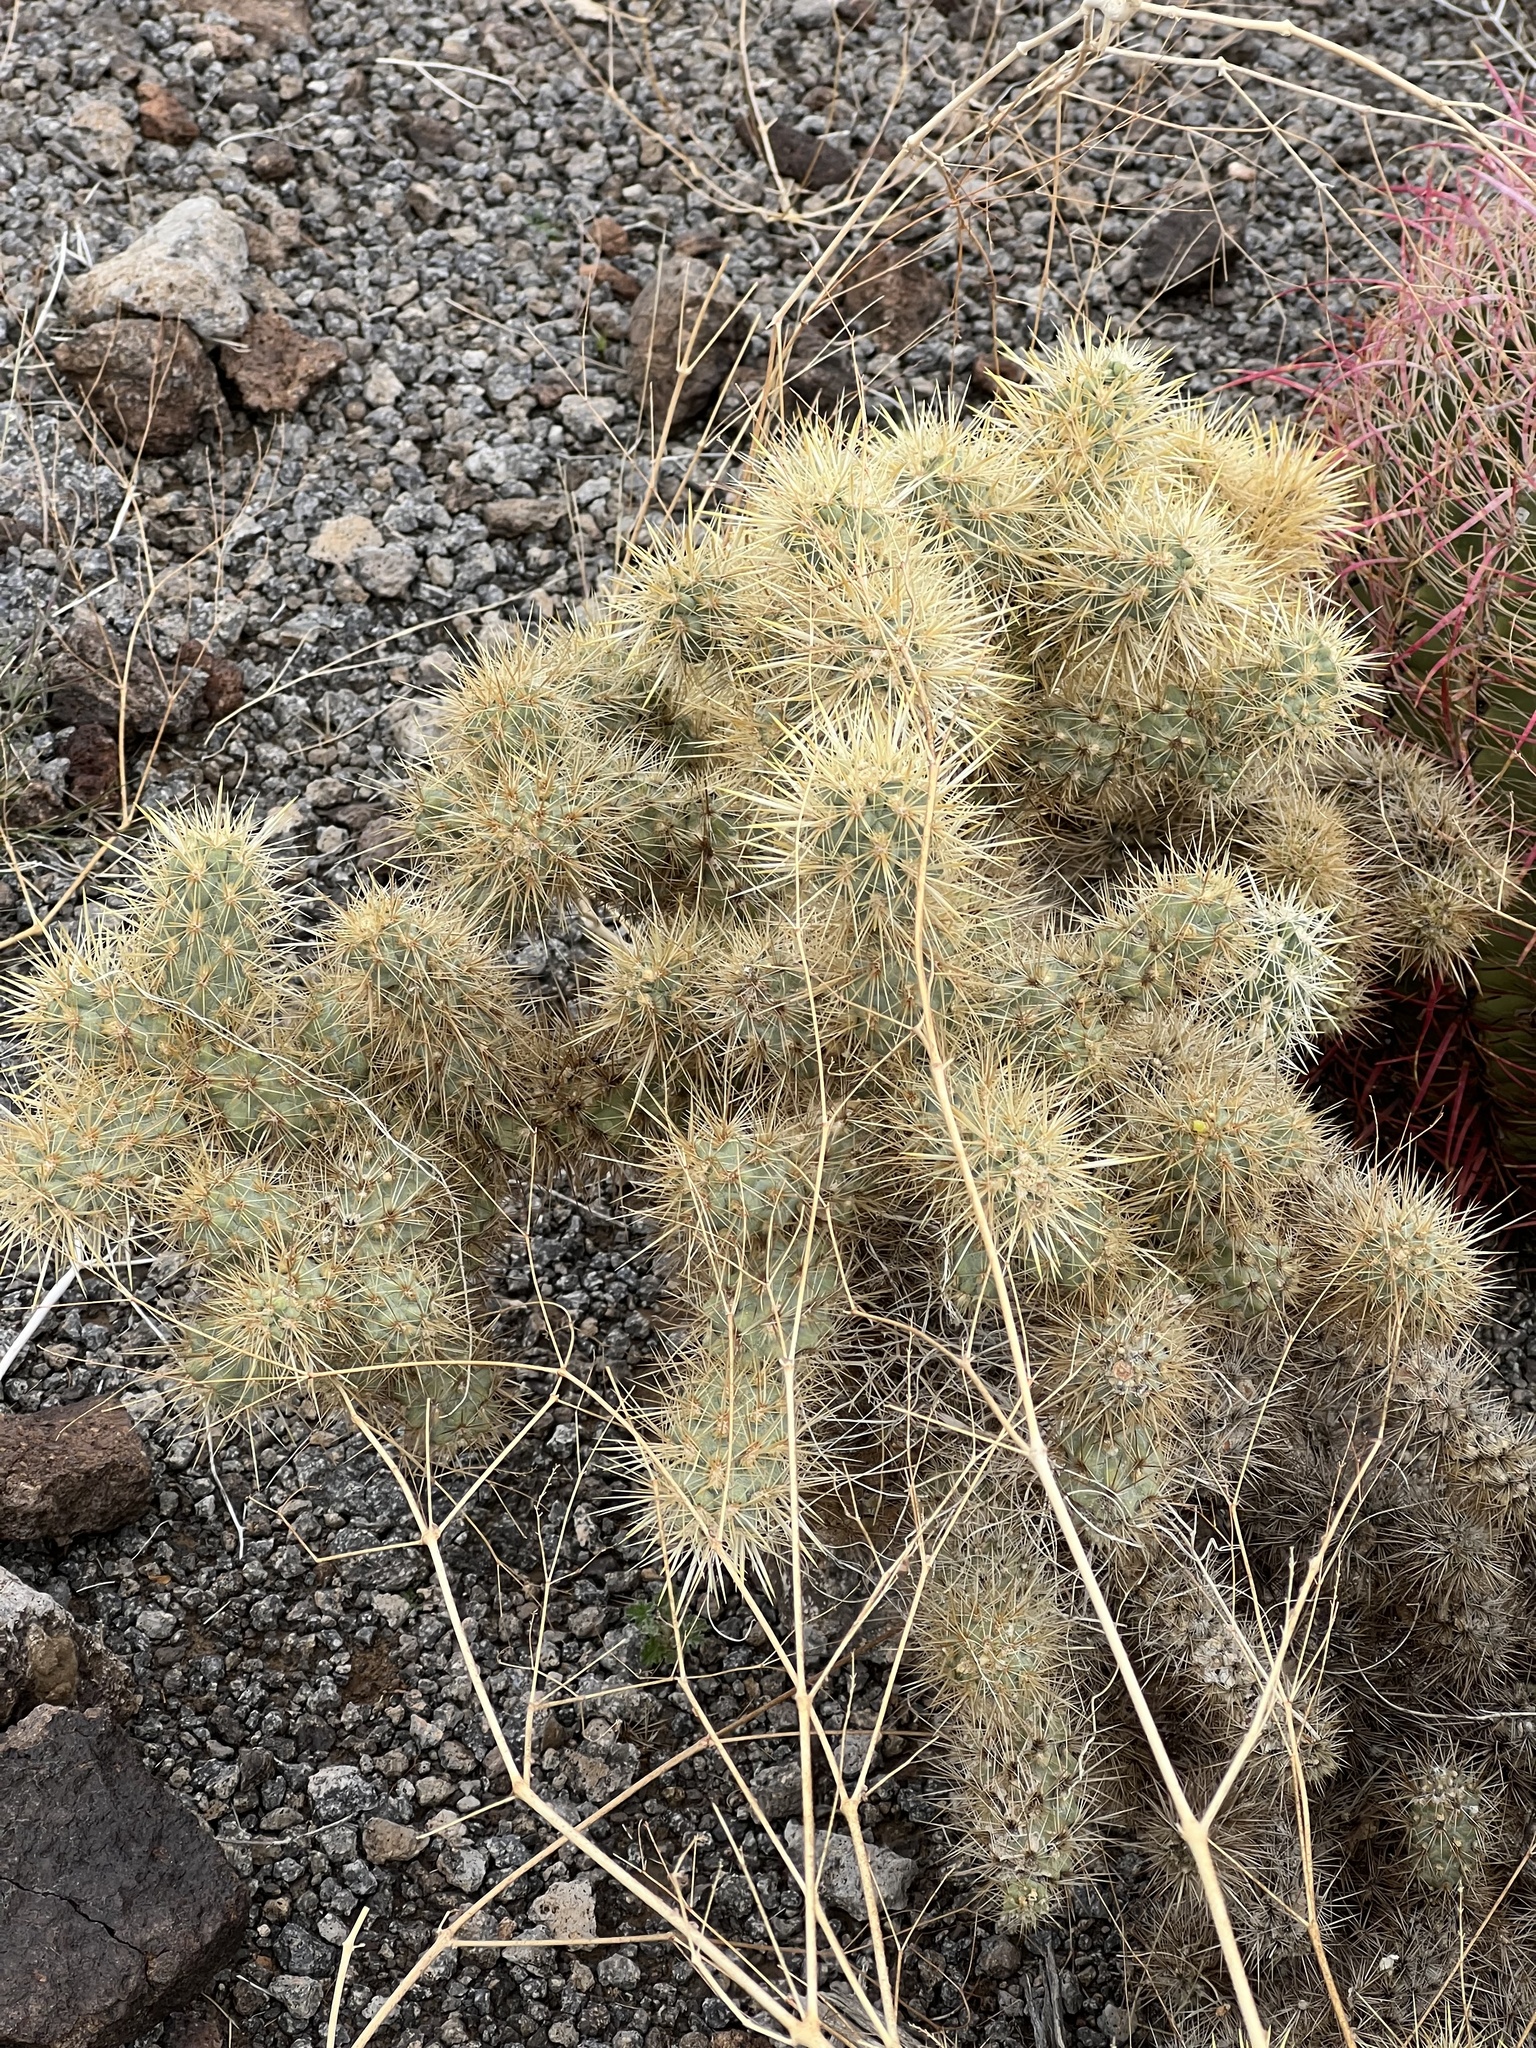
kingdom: Plantae
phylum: Tracheophyta
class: Magnoliopsida
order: Caryophyllales
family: Cactaceae
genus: Cylindropuntia
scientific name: Cylindropuntia echinocarpa
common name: Ground cholla
